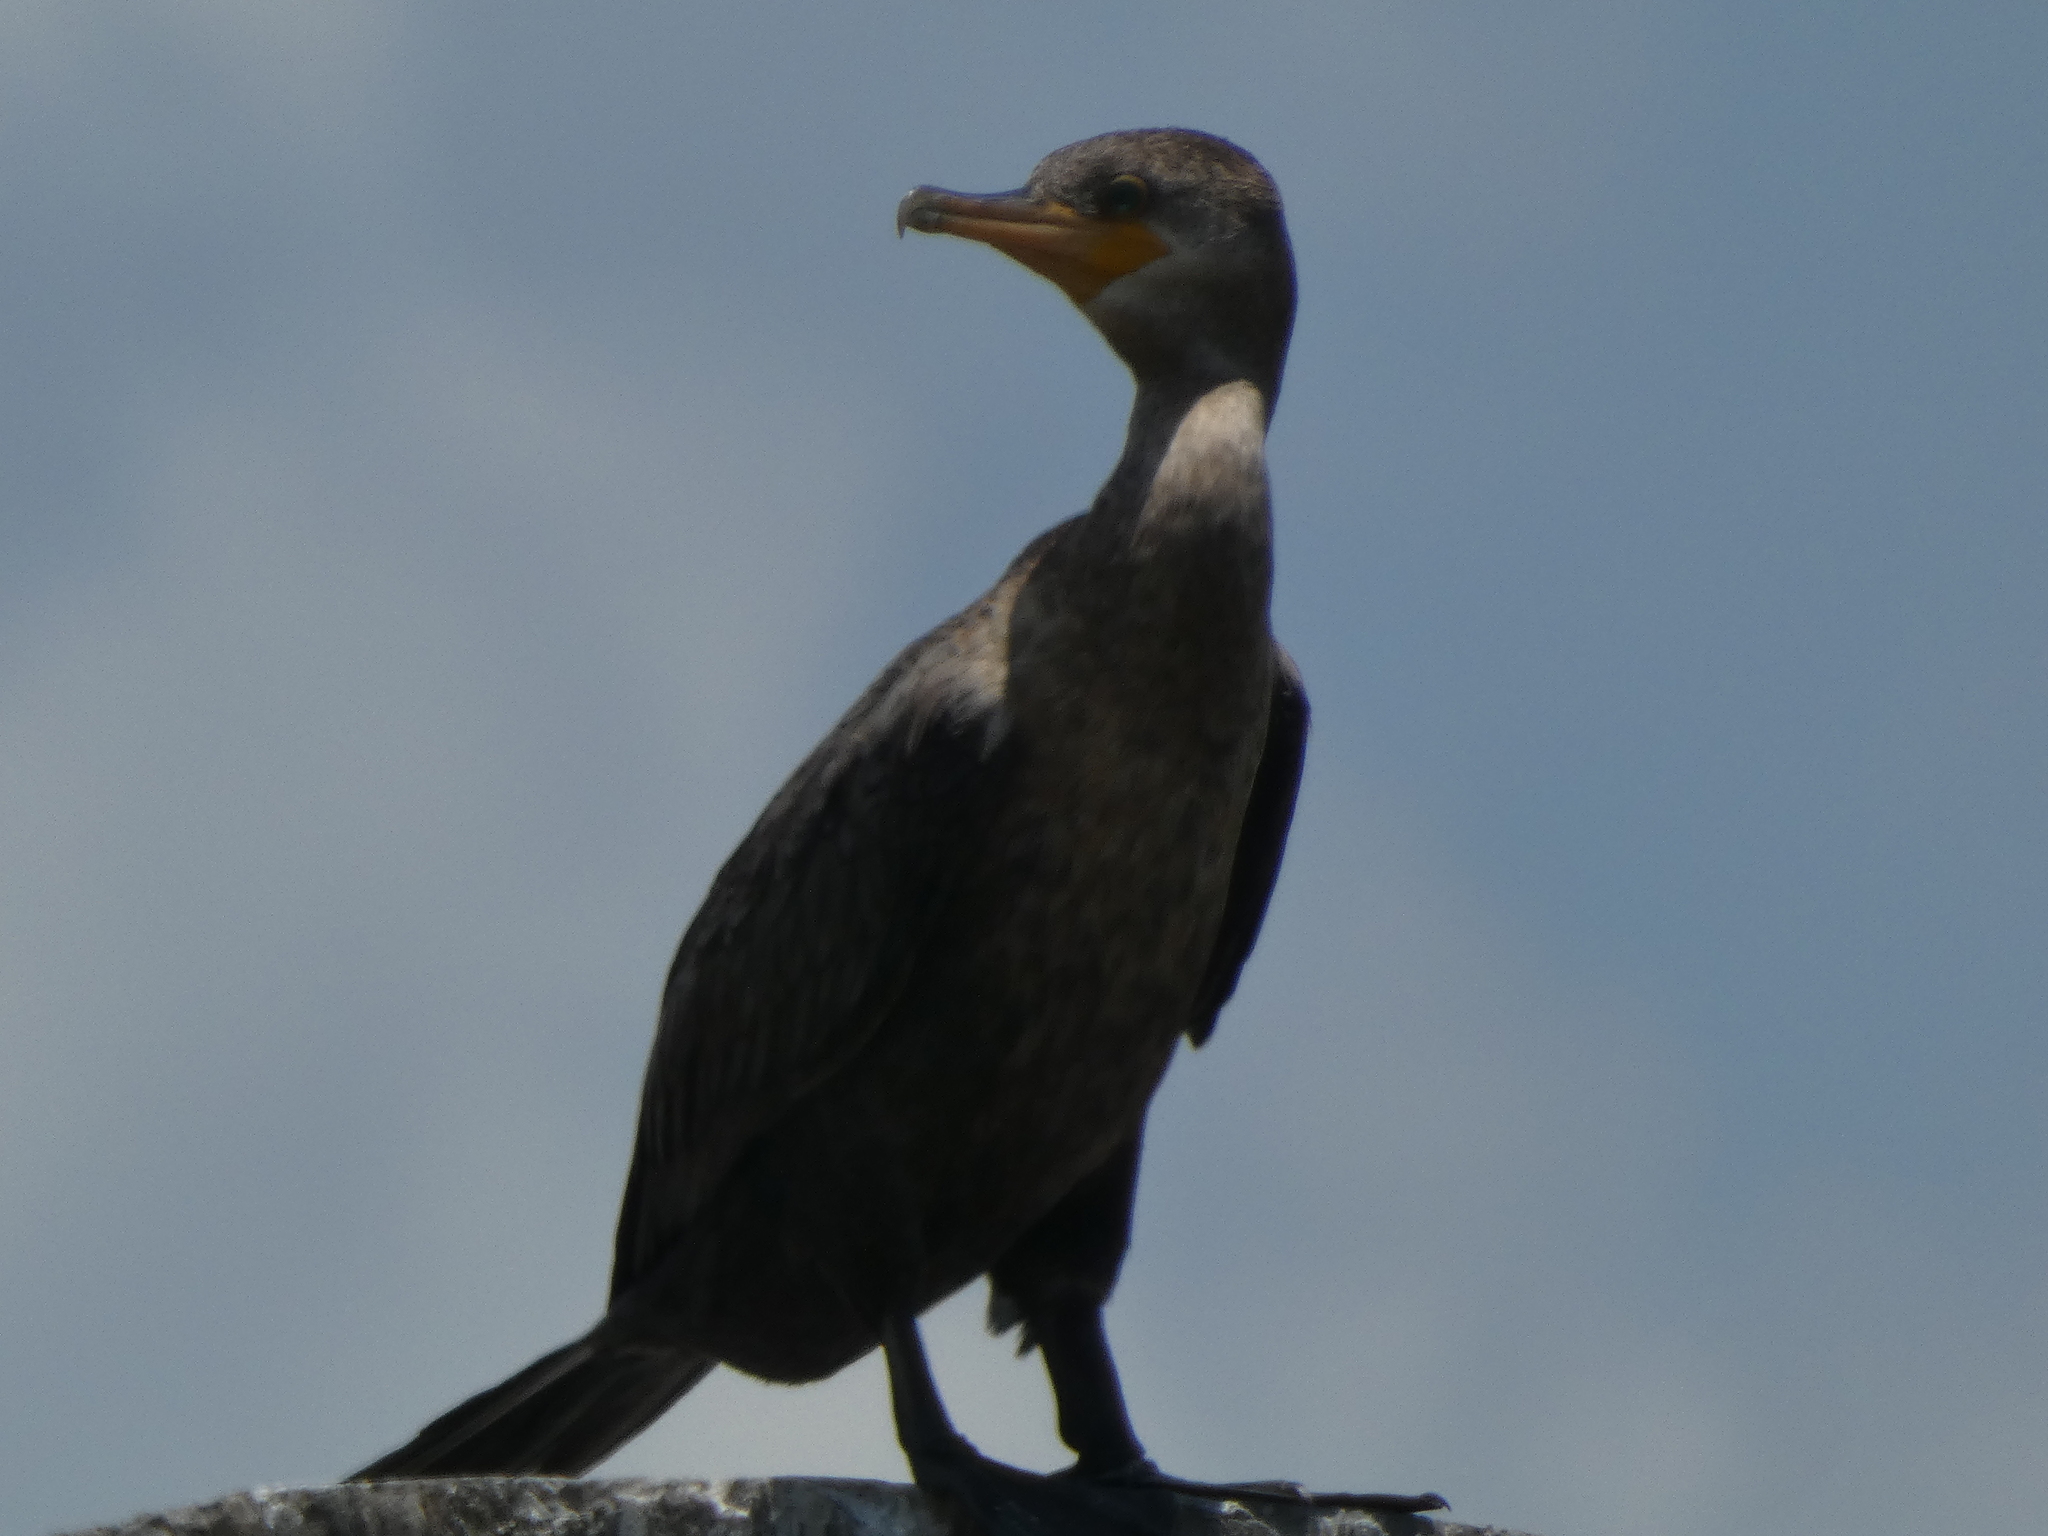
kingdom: Animalia
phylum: Chordata
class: Aves
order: Suliformes
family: Phalacrocoracidae
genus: Phalacrocorax
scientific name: Phalacrocorax brasilianus
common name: Neotropic cormorant
